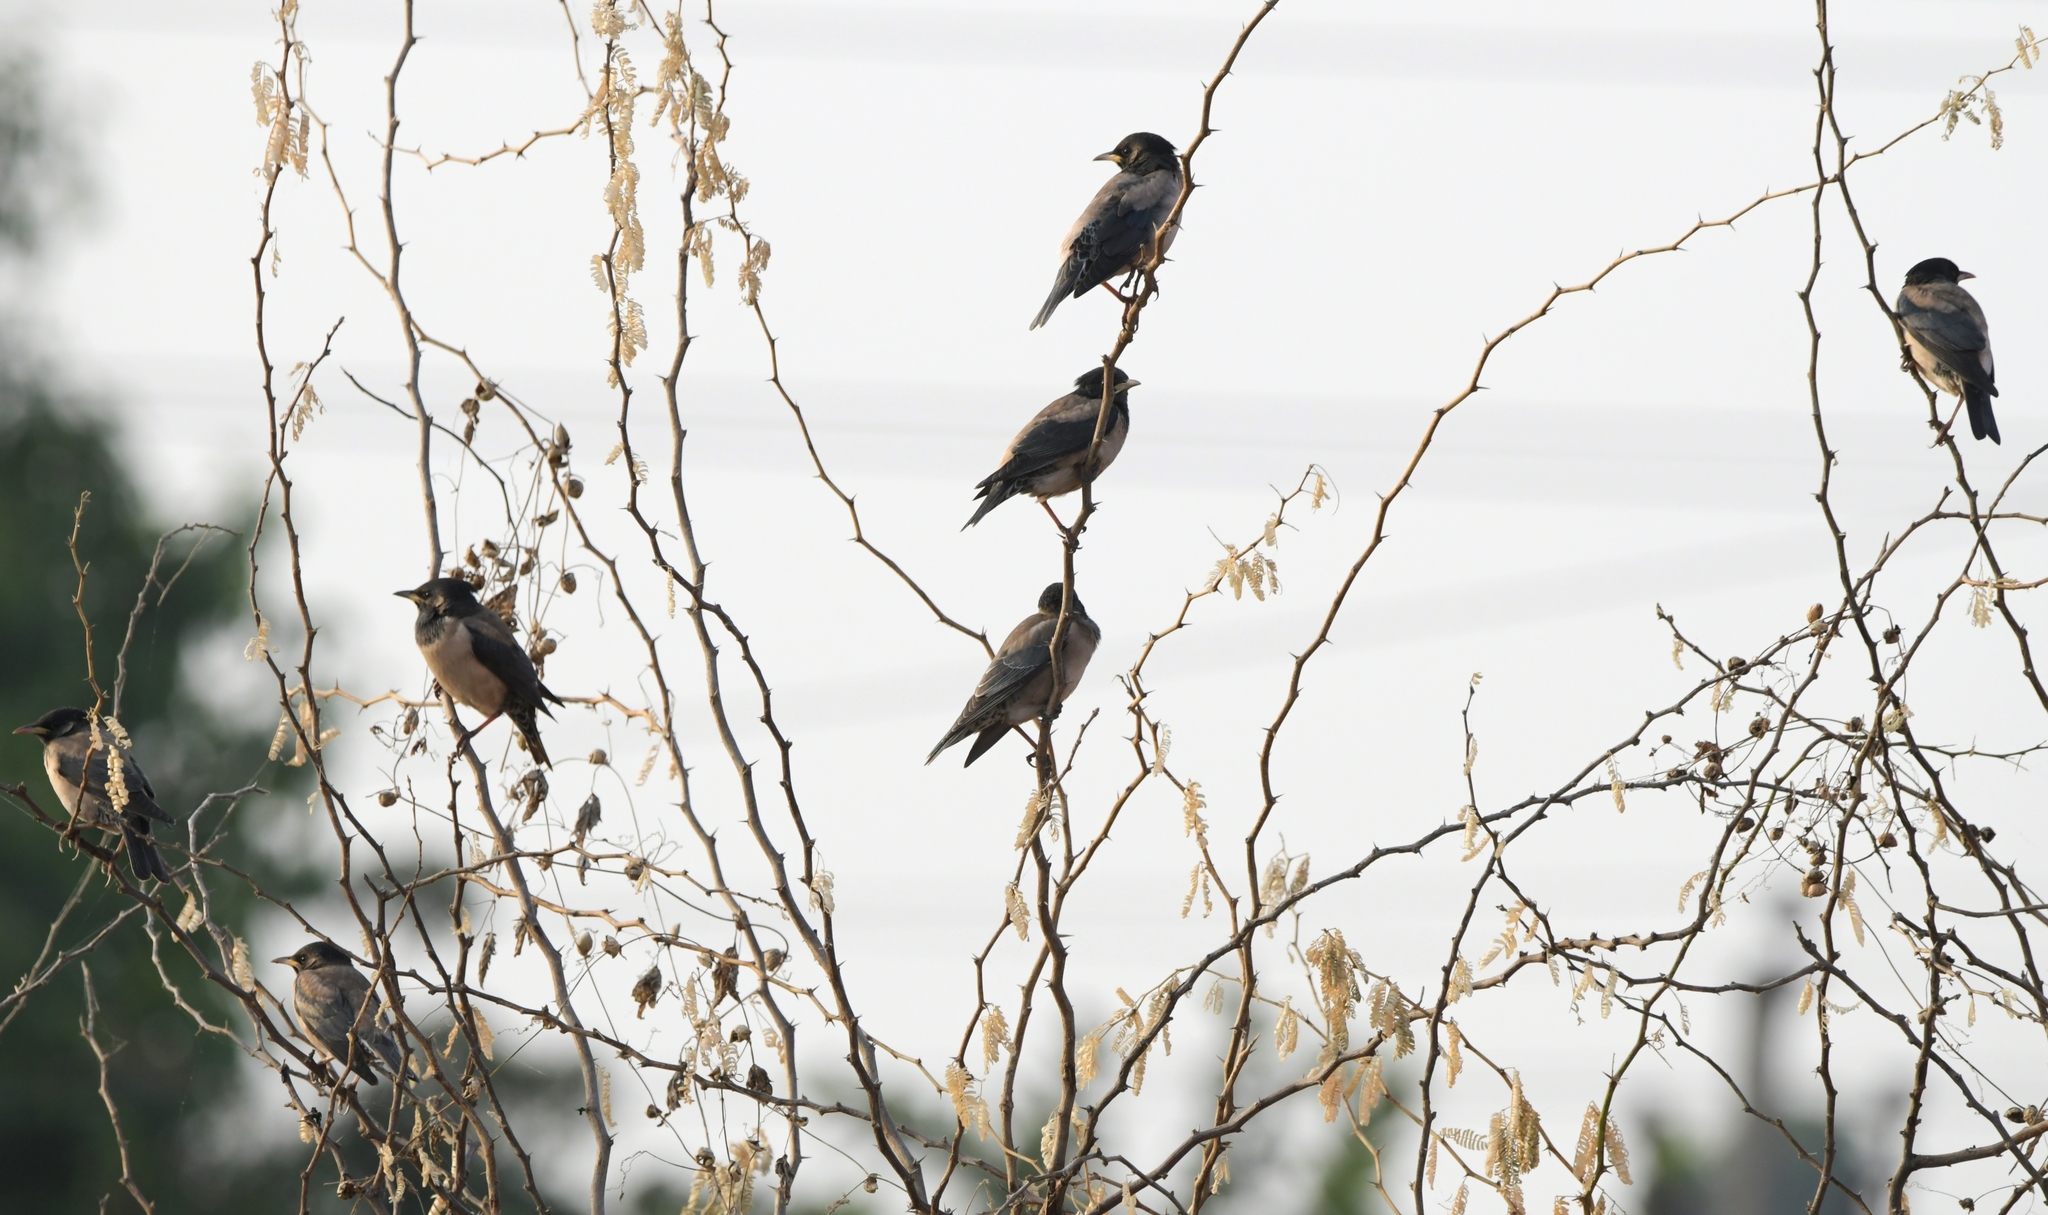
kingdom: Animalia
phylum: Chordata
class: Aves
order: Passeriformes
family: Sturnidae
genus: Pastor
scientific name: Pastor roseus
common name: Rosy starling
